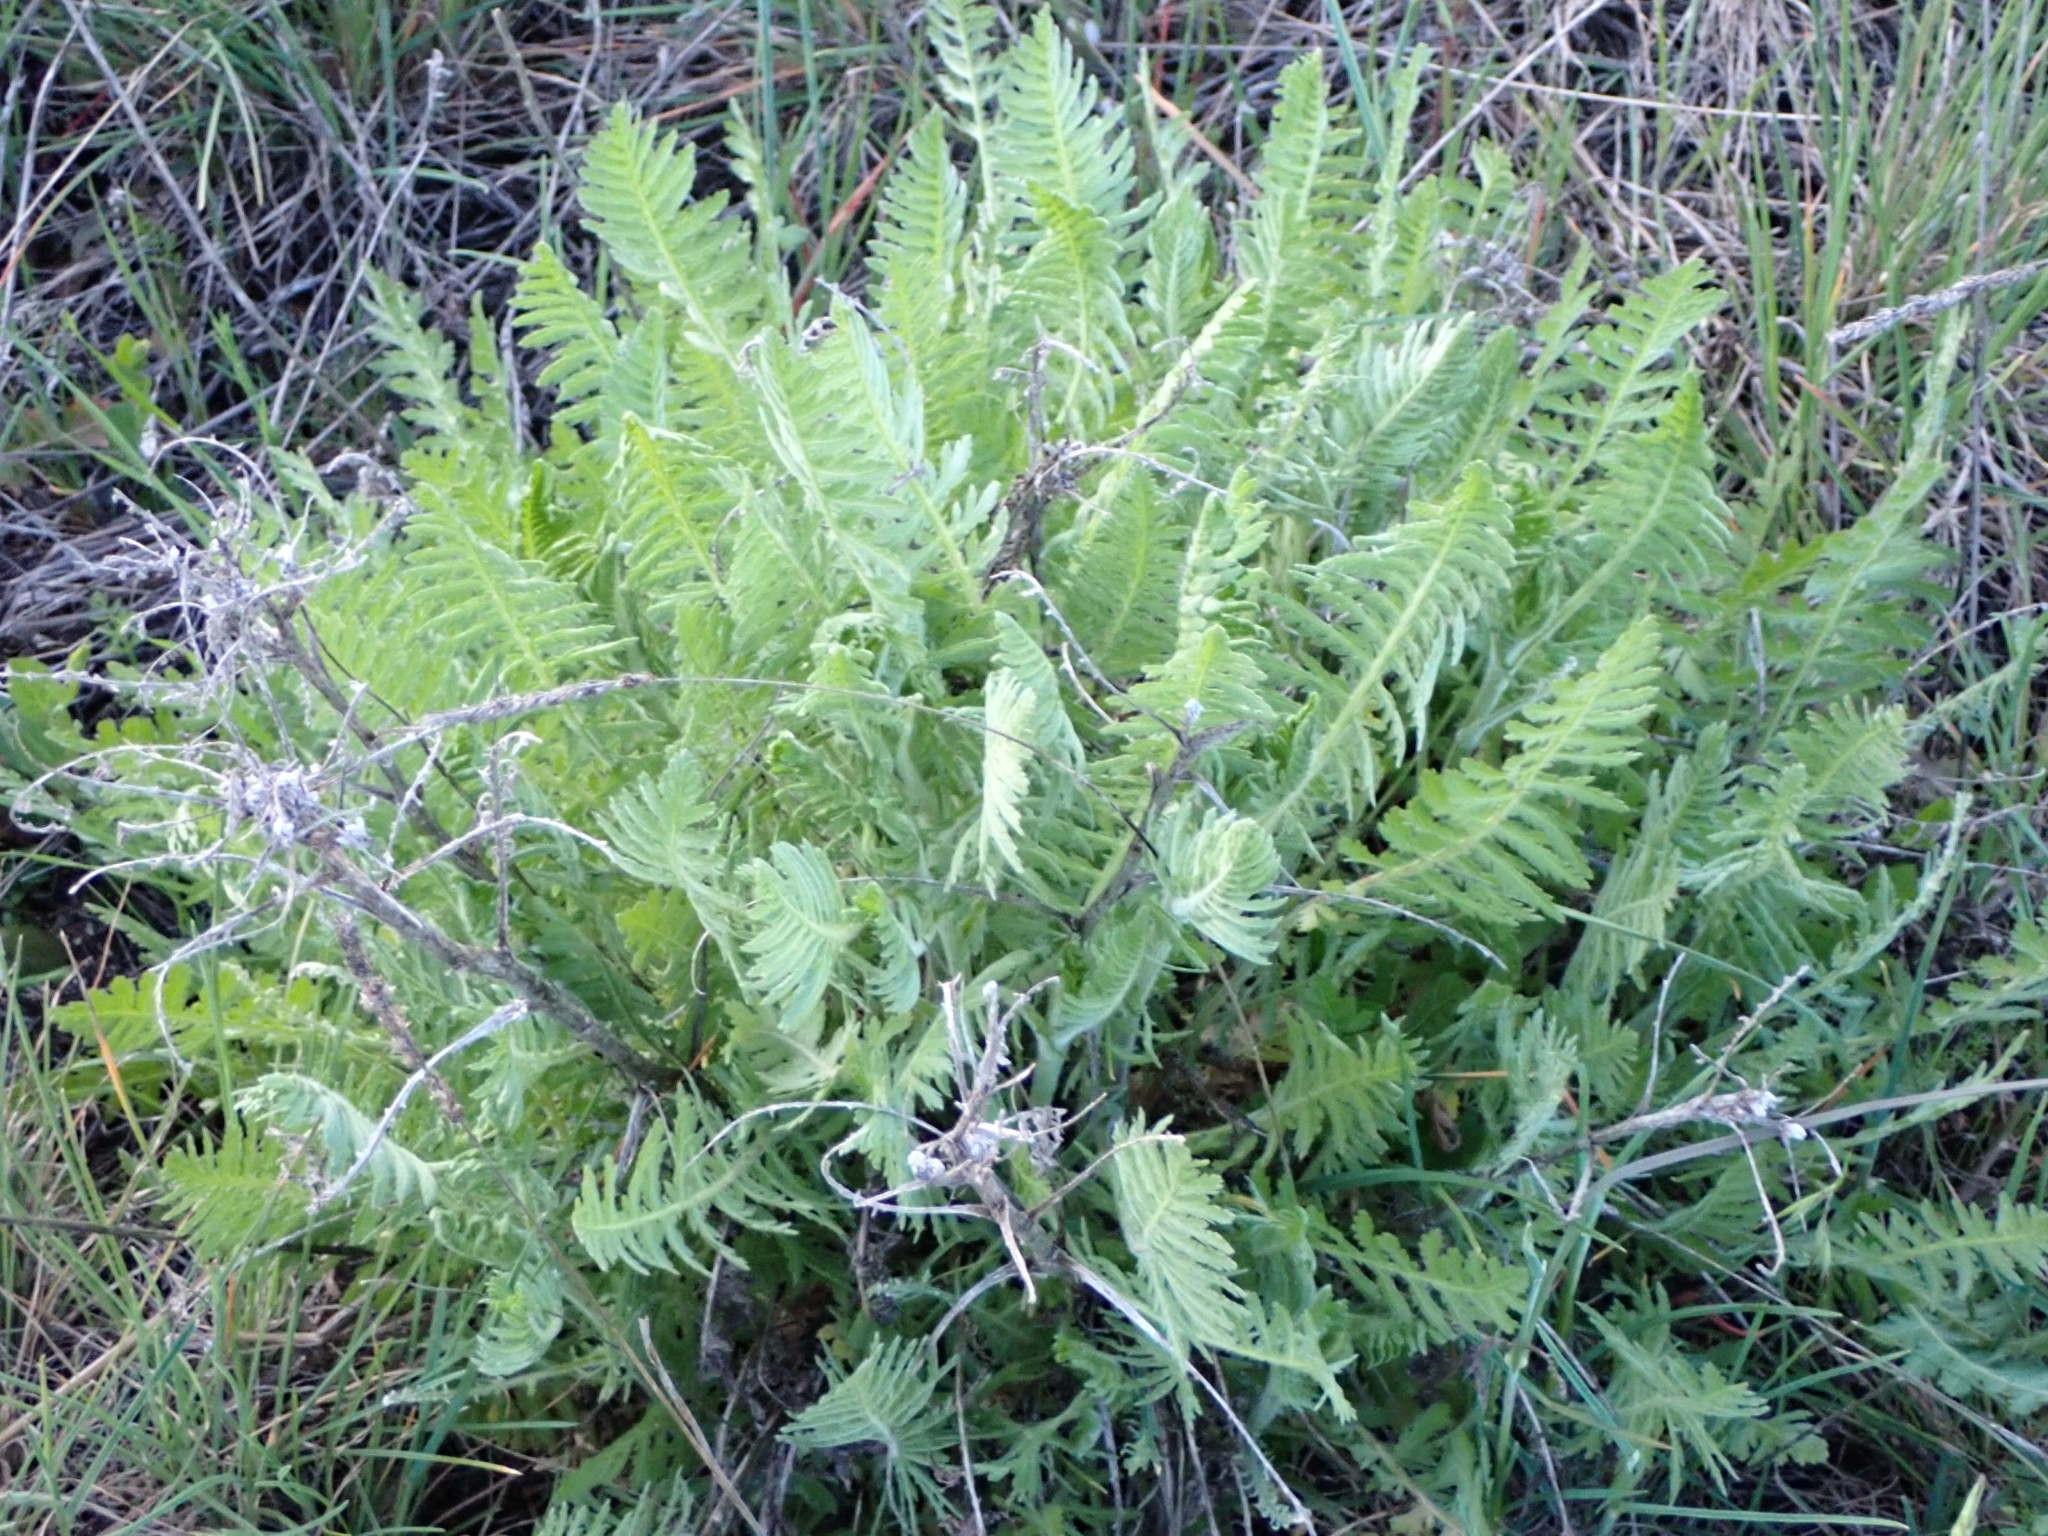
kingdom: Plantae
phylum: Tracheophyta
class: Magnoliopsida
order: Asterales
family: Asteraceae
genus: Achillea
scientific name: Achillea filipendulina
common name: Fernleaf yarrow
